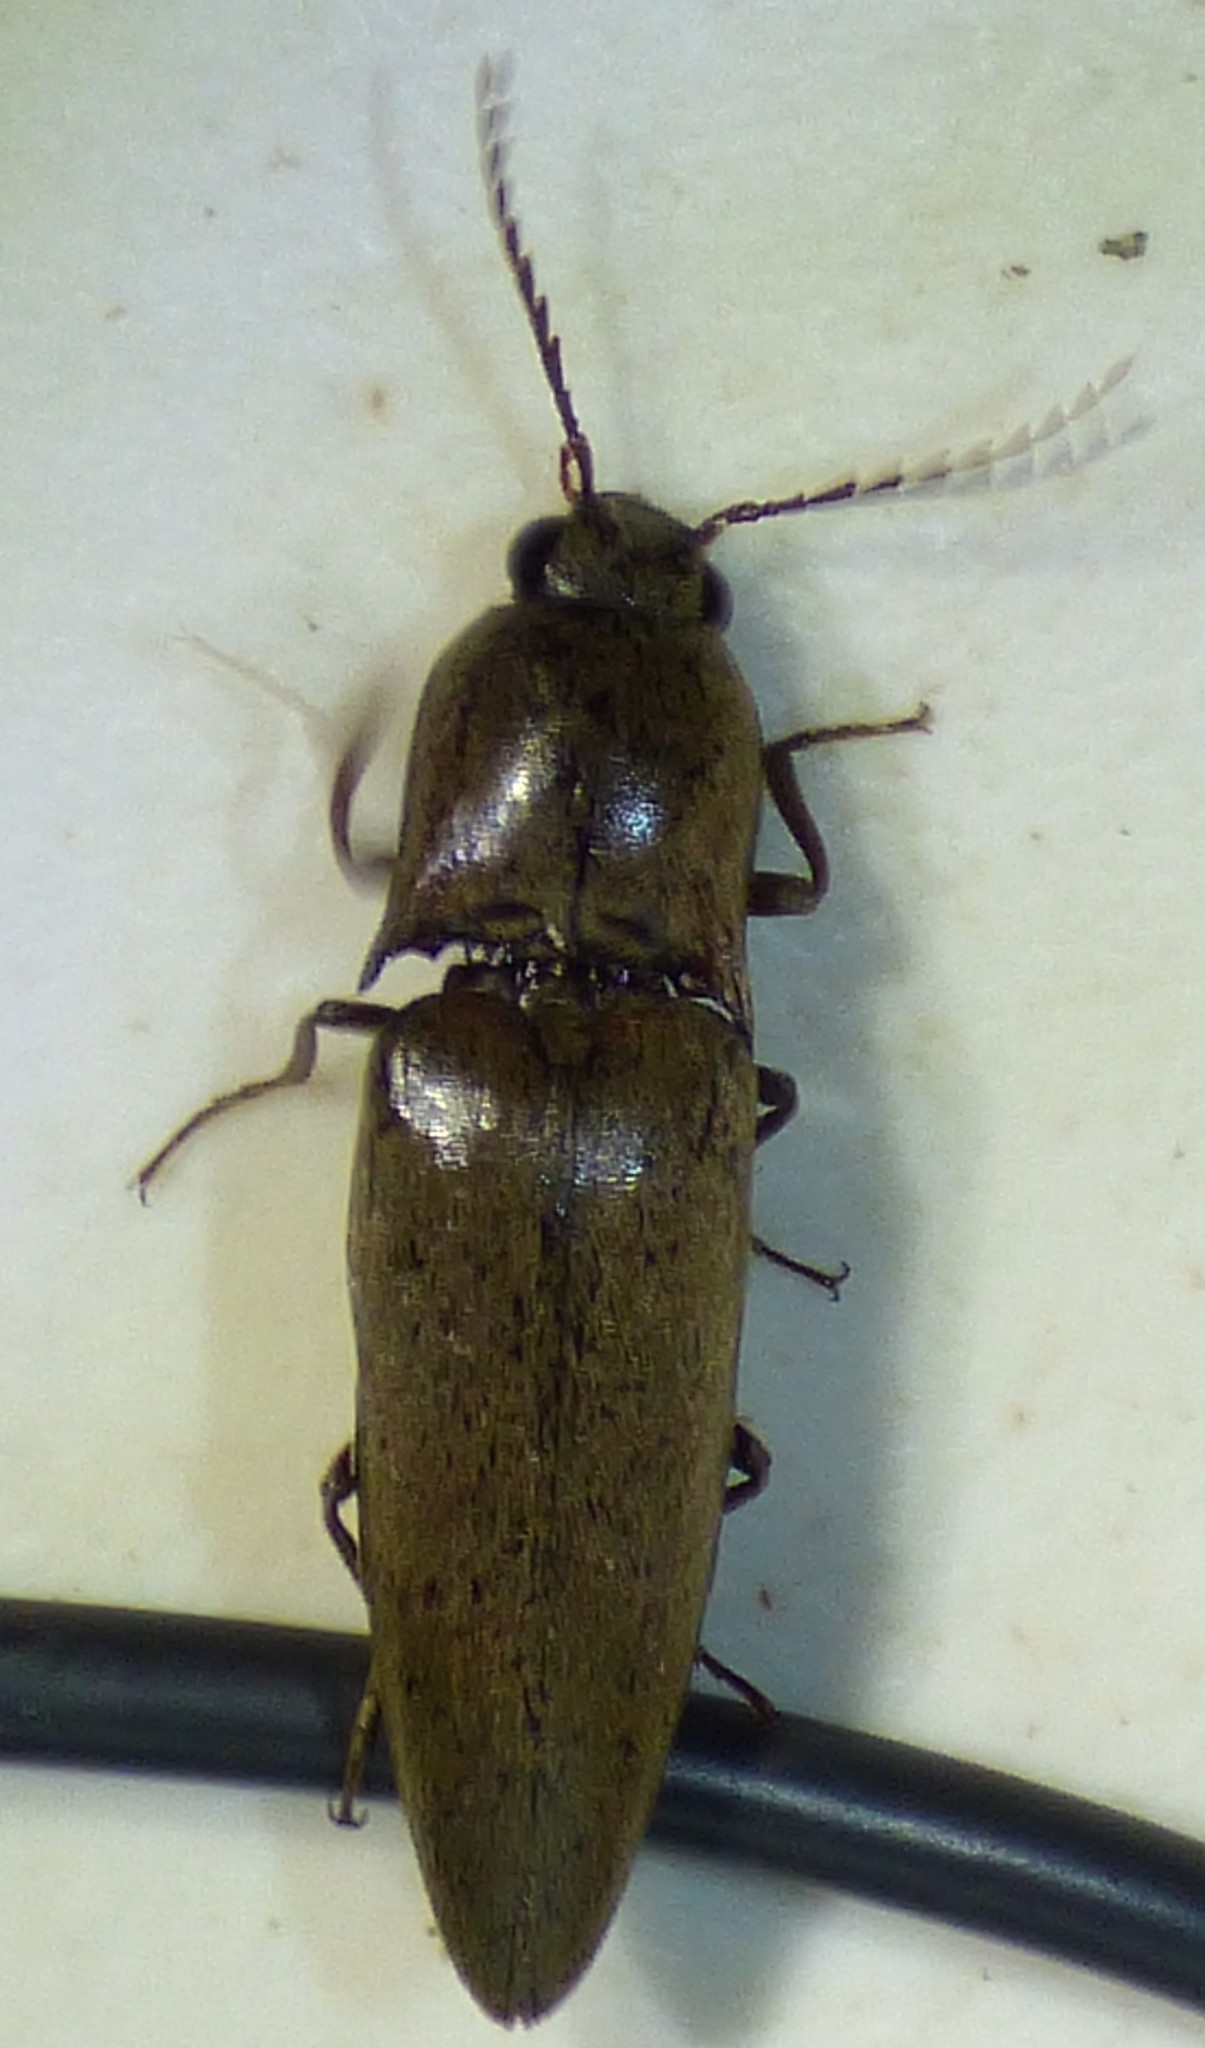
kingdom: Animalia
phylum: Arthropoda
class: Insecta
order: Coleoptera
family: Elateridae
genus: Orthostethus
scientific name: Orthostethus infuscatus
